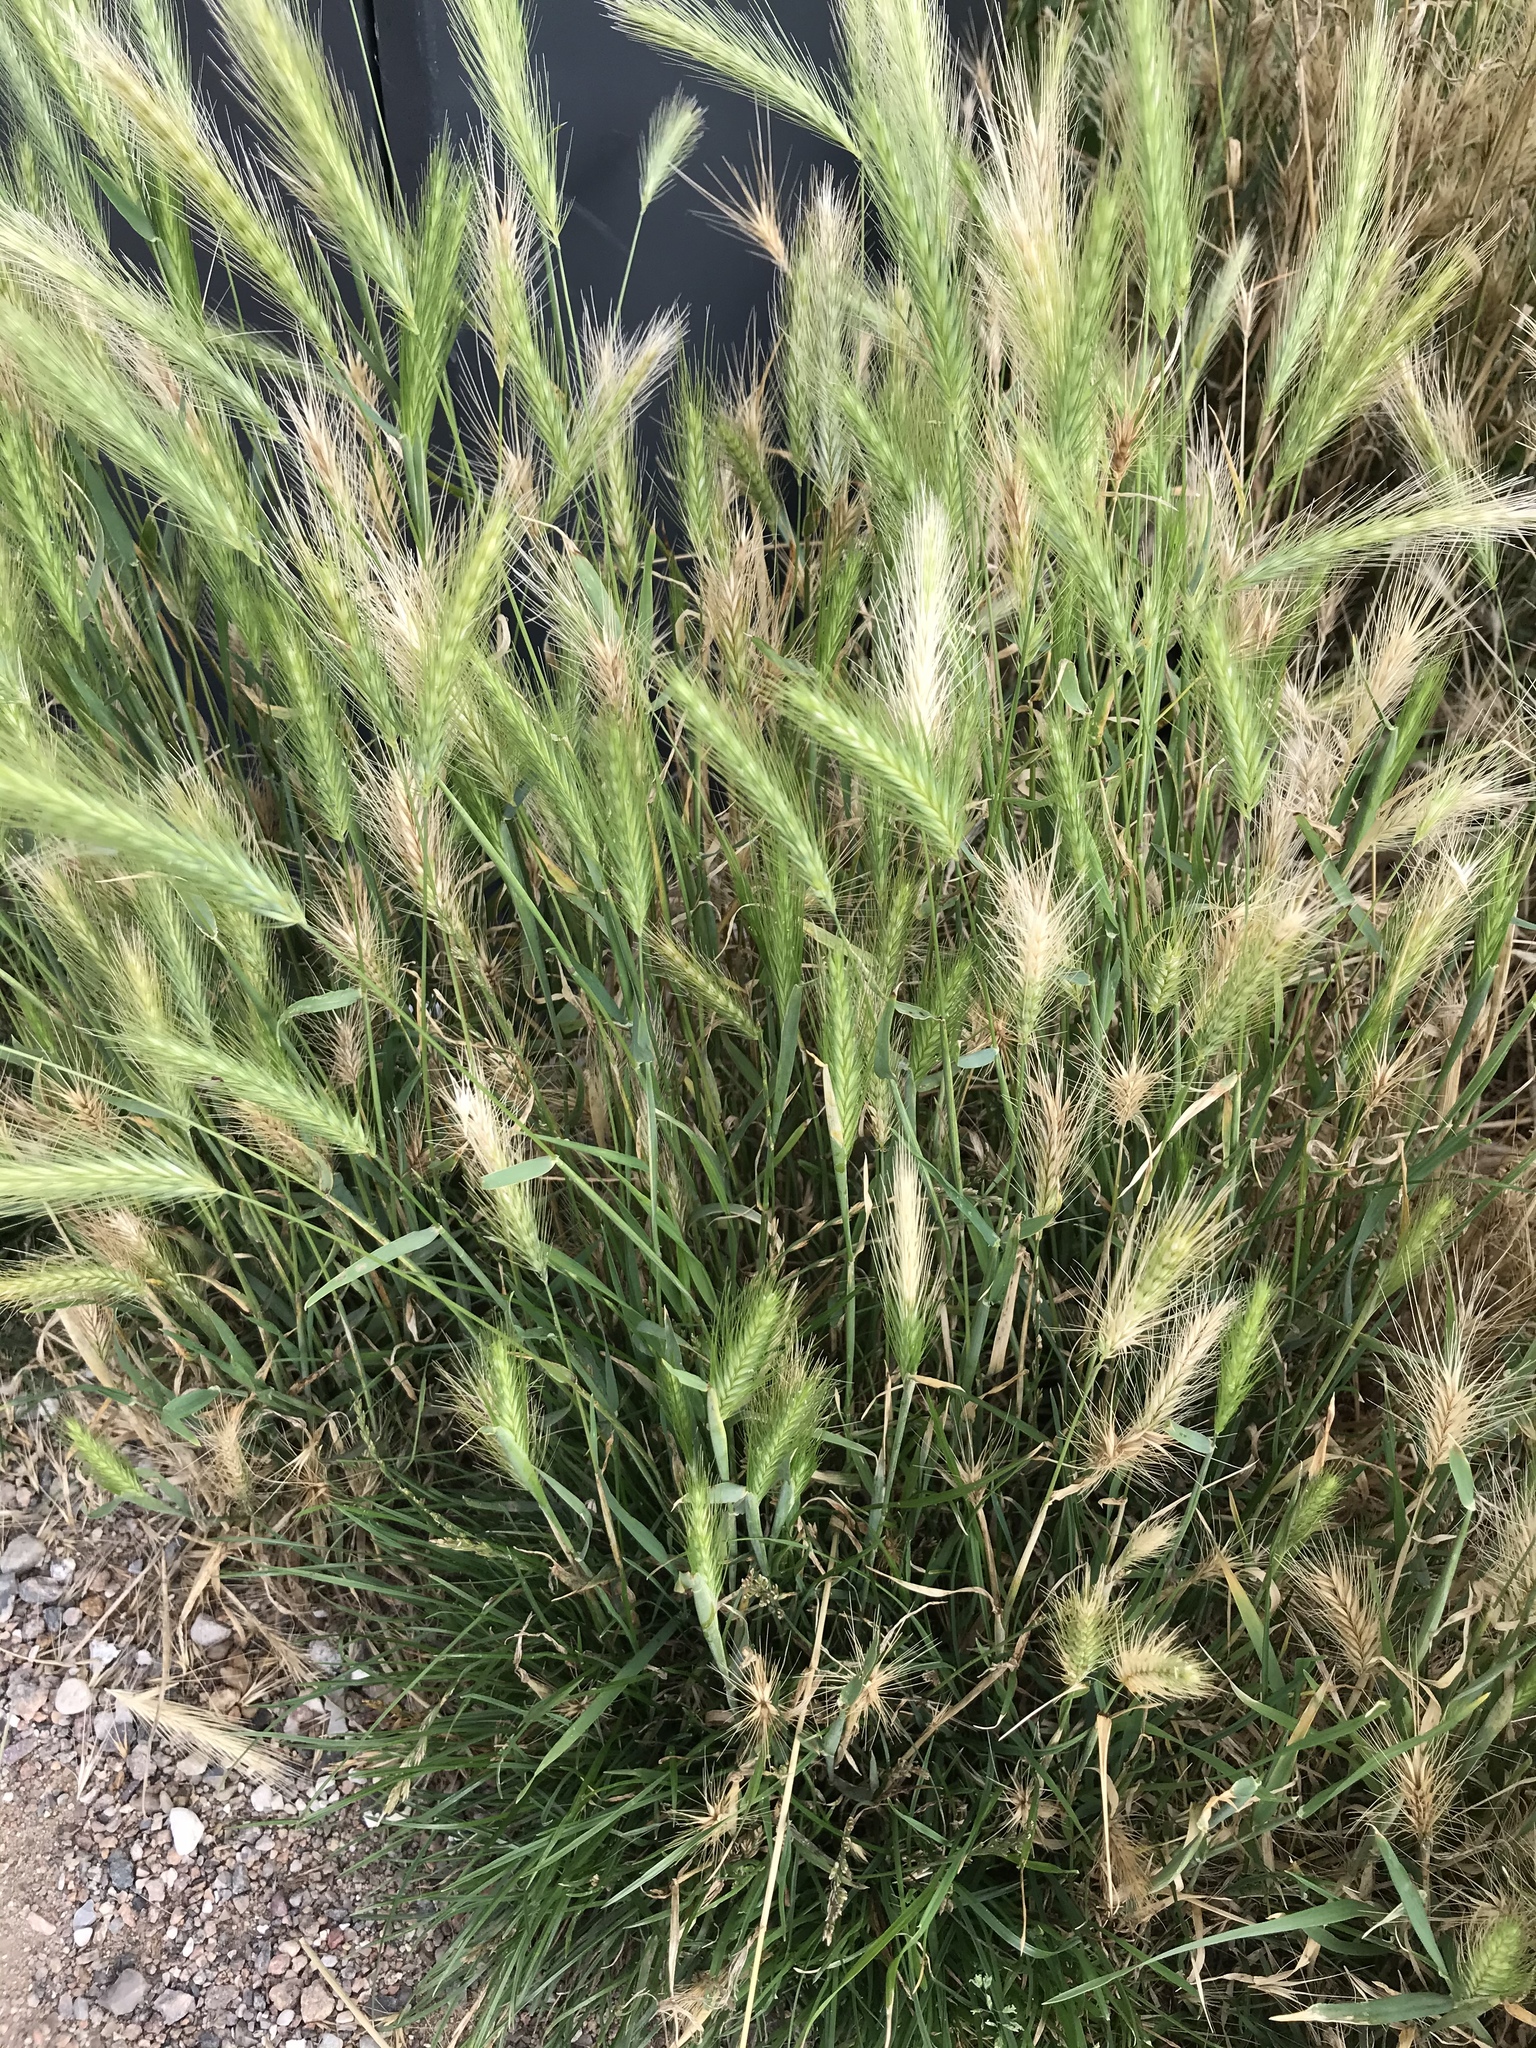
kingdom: Plantae
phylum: Tracheophyta
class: Liliopsida
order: Poales
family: Poaceae
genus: Hordeum
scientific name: Hordeum murinum
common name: Wall barley
